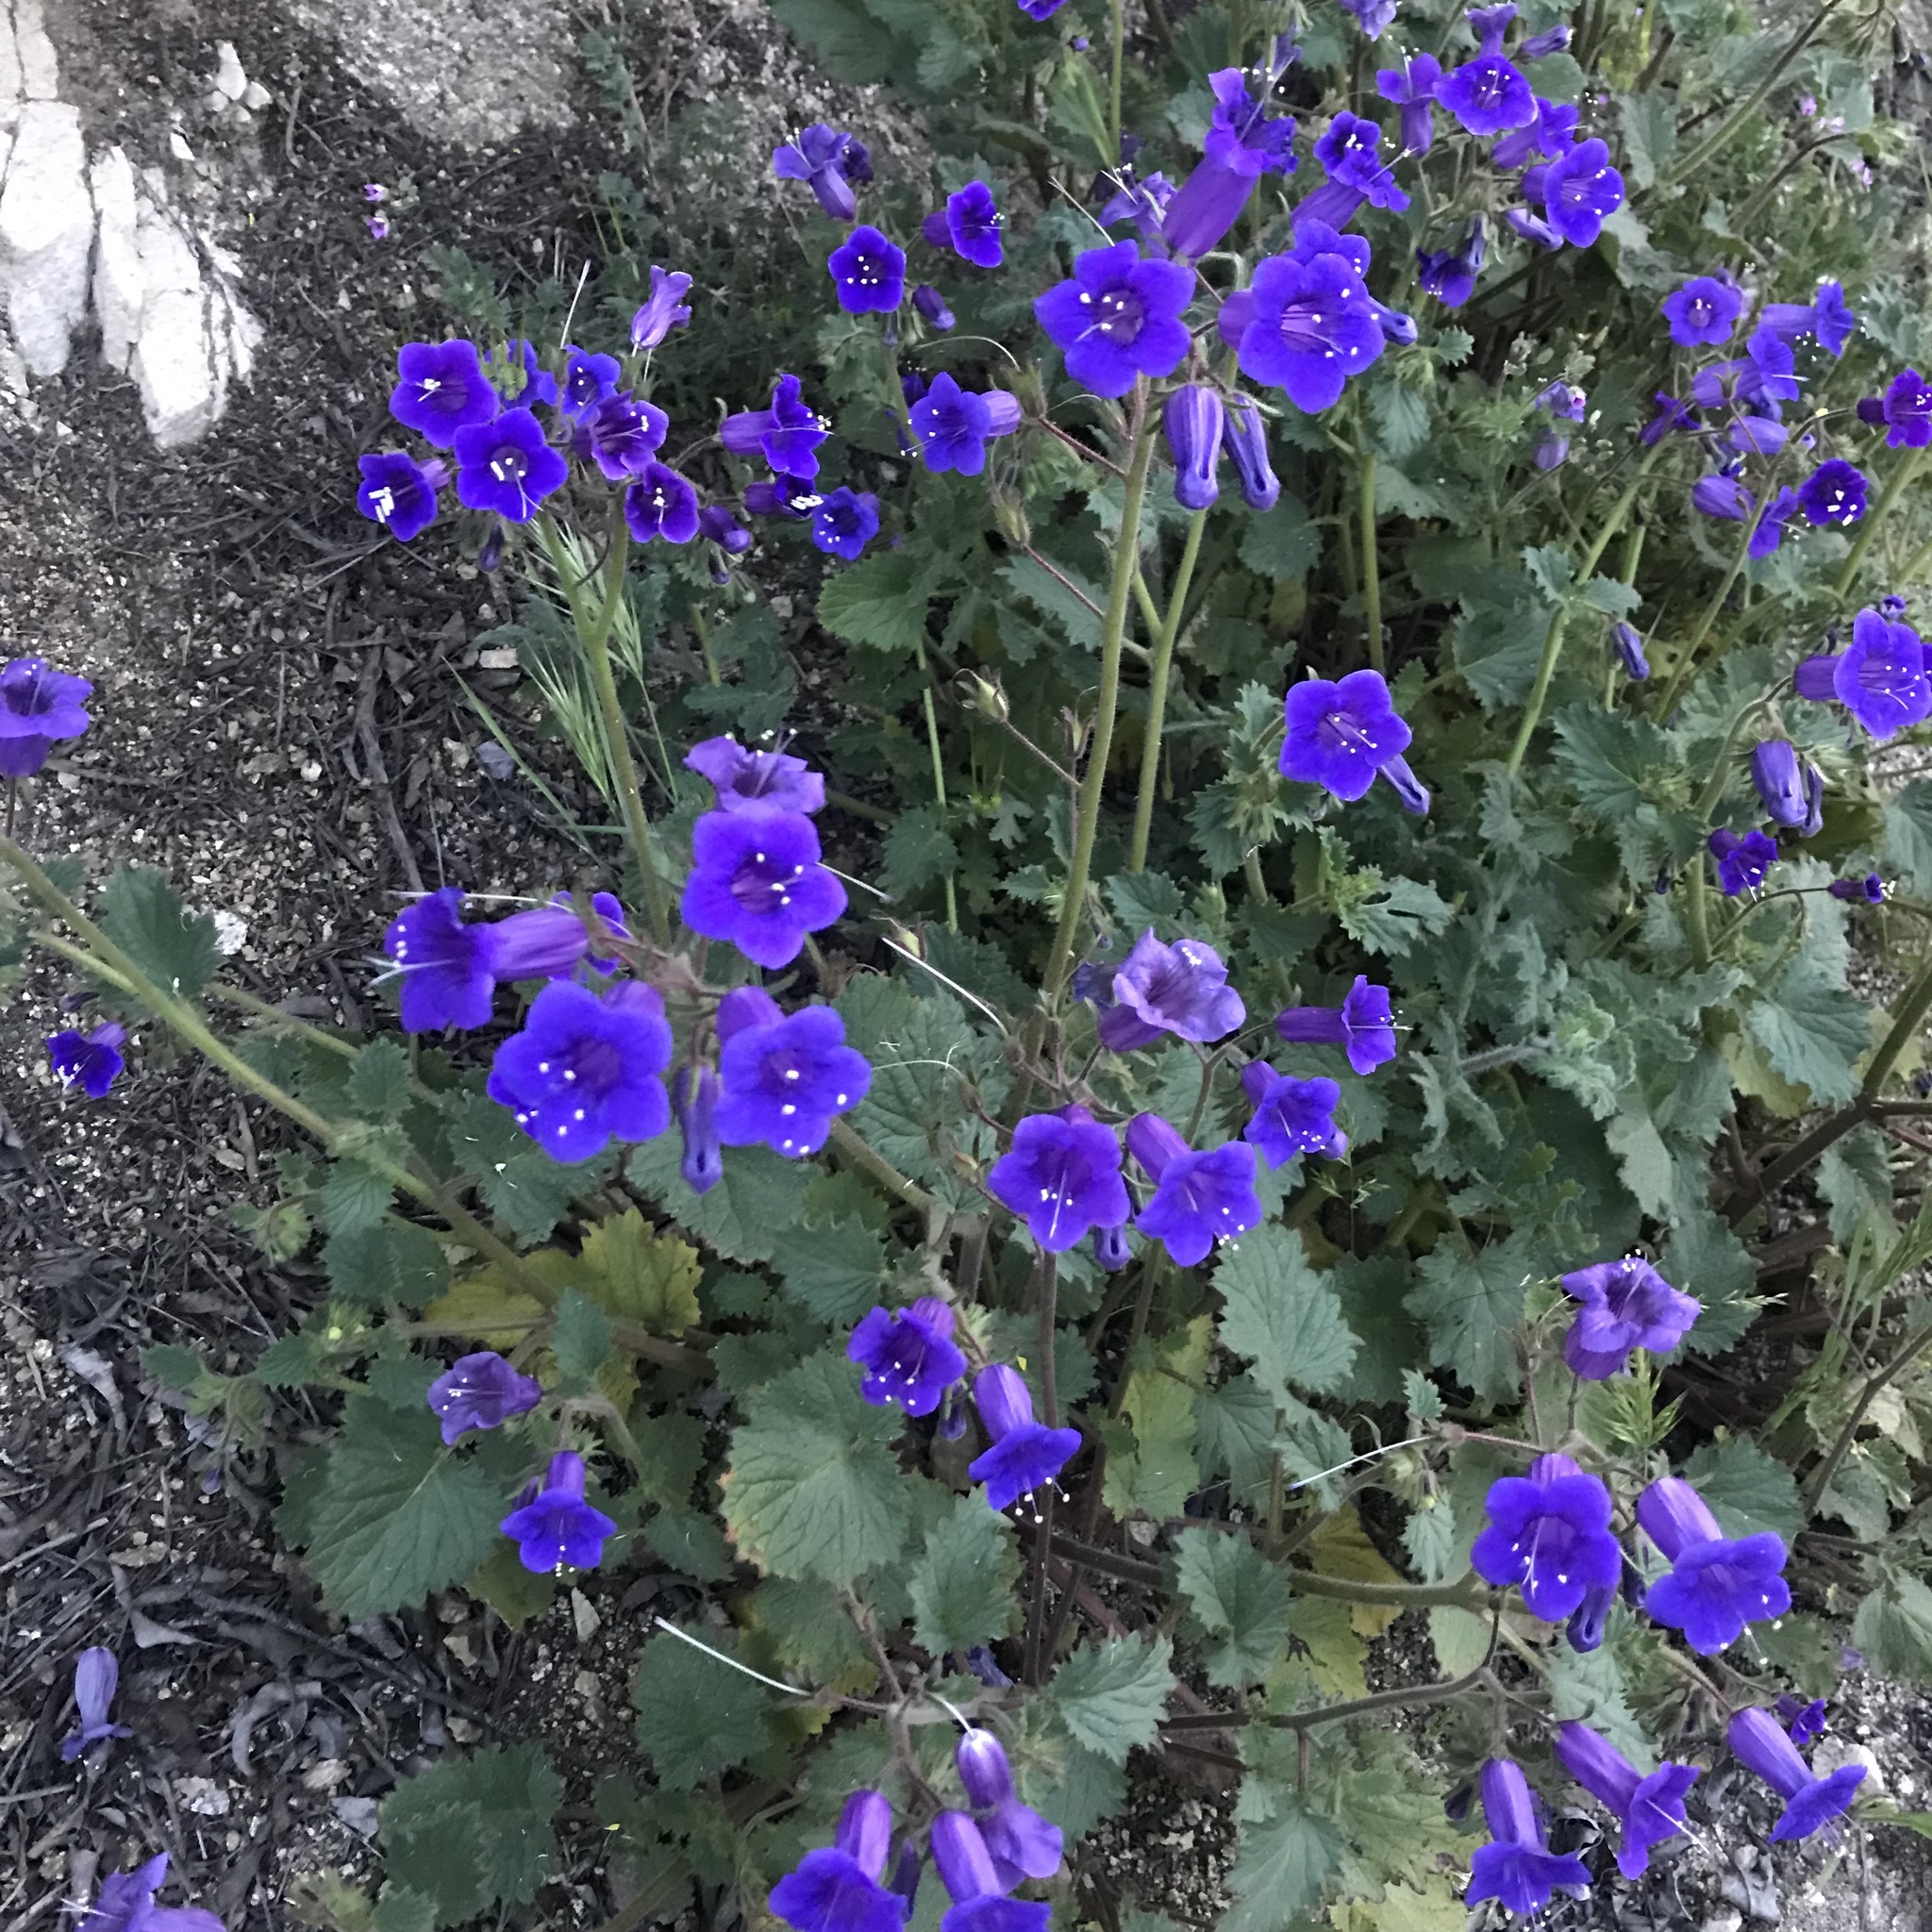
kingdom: Plantae
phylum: Tracheophyta
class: Magnoliopsida
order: Boraginales
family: Hydrophyllaceae
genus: Phacelia
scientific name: Phacelia minor
